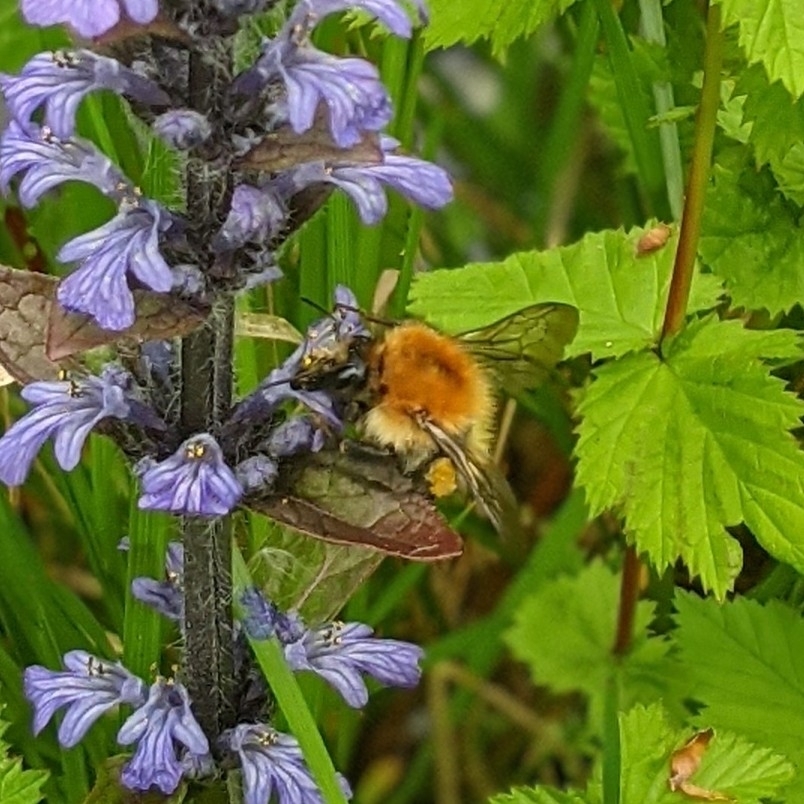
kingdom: Animalia
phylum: Arthropoda
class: Insecta
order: Hymenoptera
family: Apidae
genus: Bombus
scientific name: Bombus pascuorum
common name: Common carder bee
